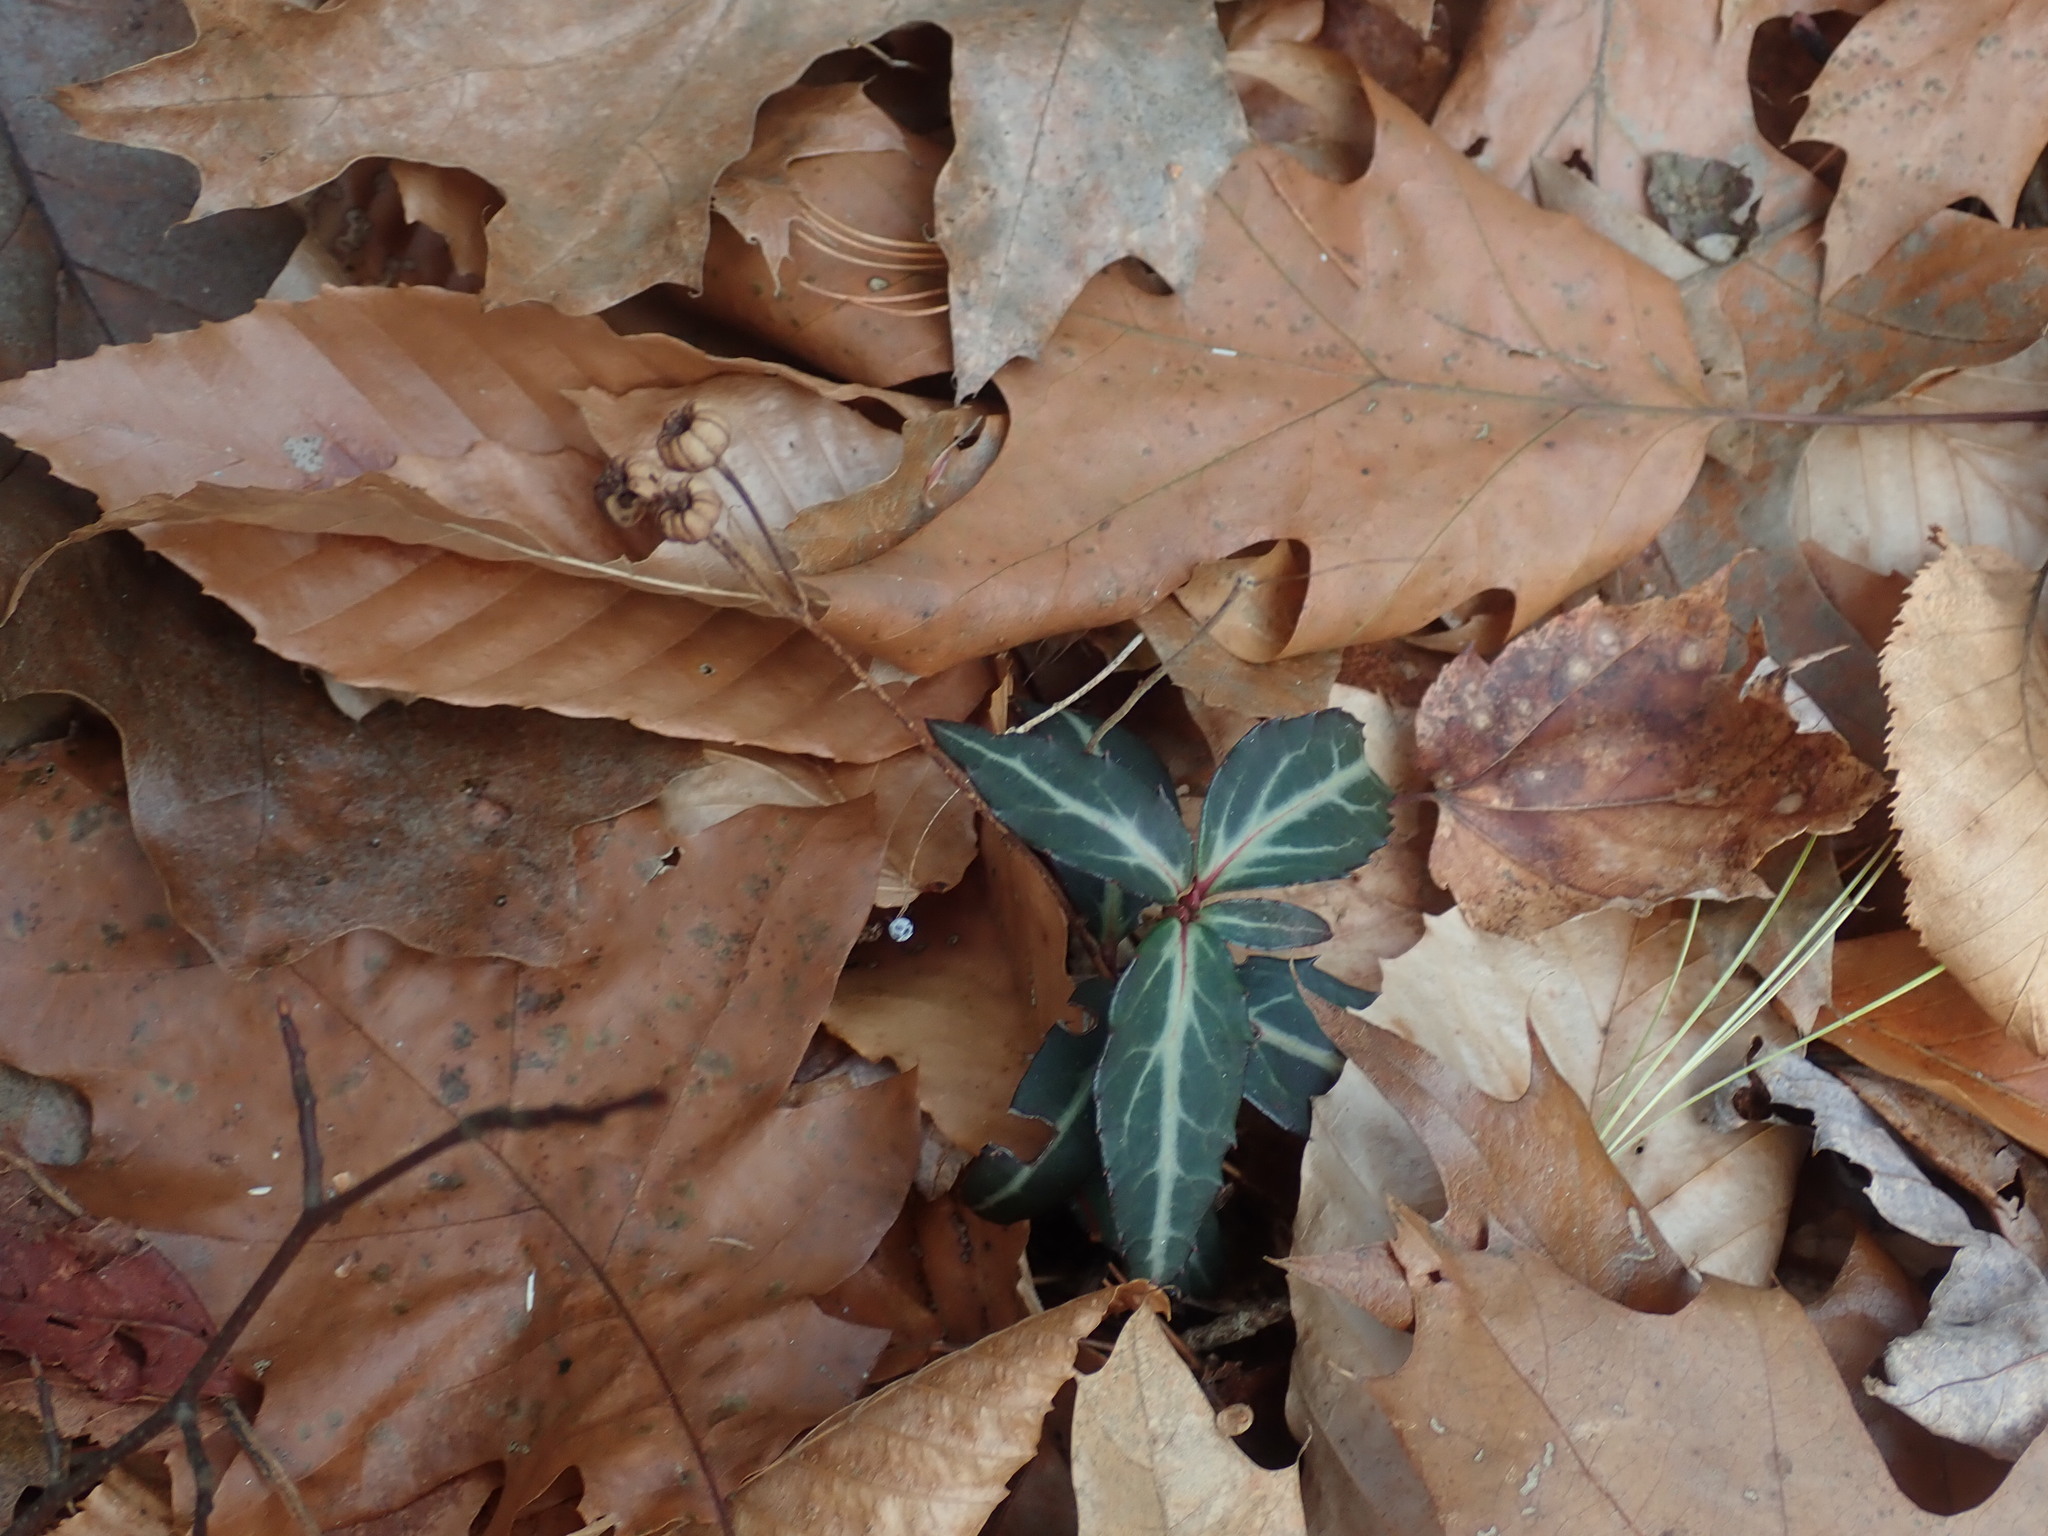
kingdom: Plantae
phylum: Tracheophyta
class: Magnoliopsida
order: Ericales
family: Ericaceae
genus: Chimaphila
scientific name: Chimaphila maculata
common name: Spotted pipsissewa
